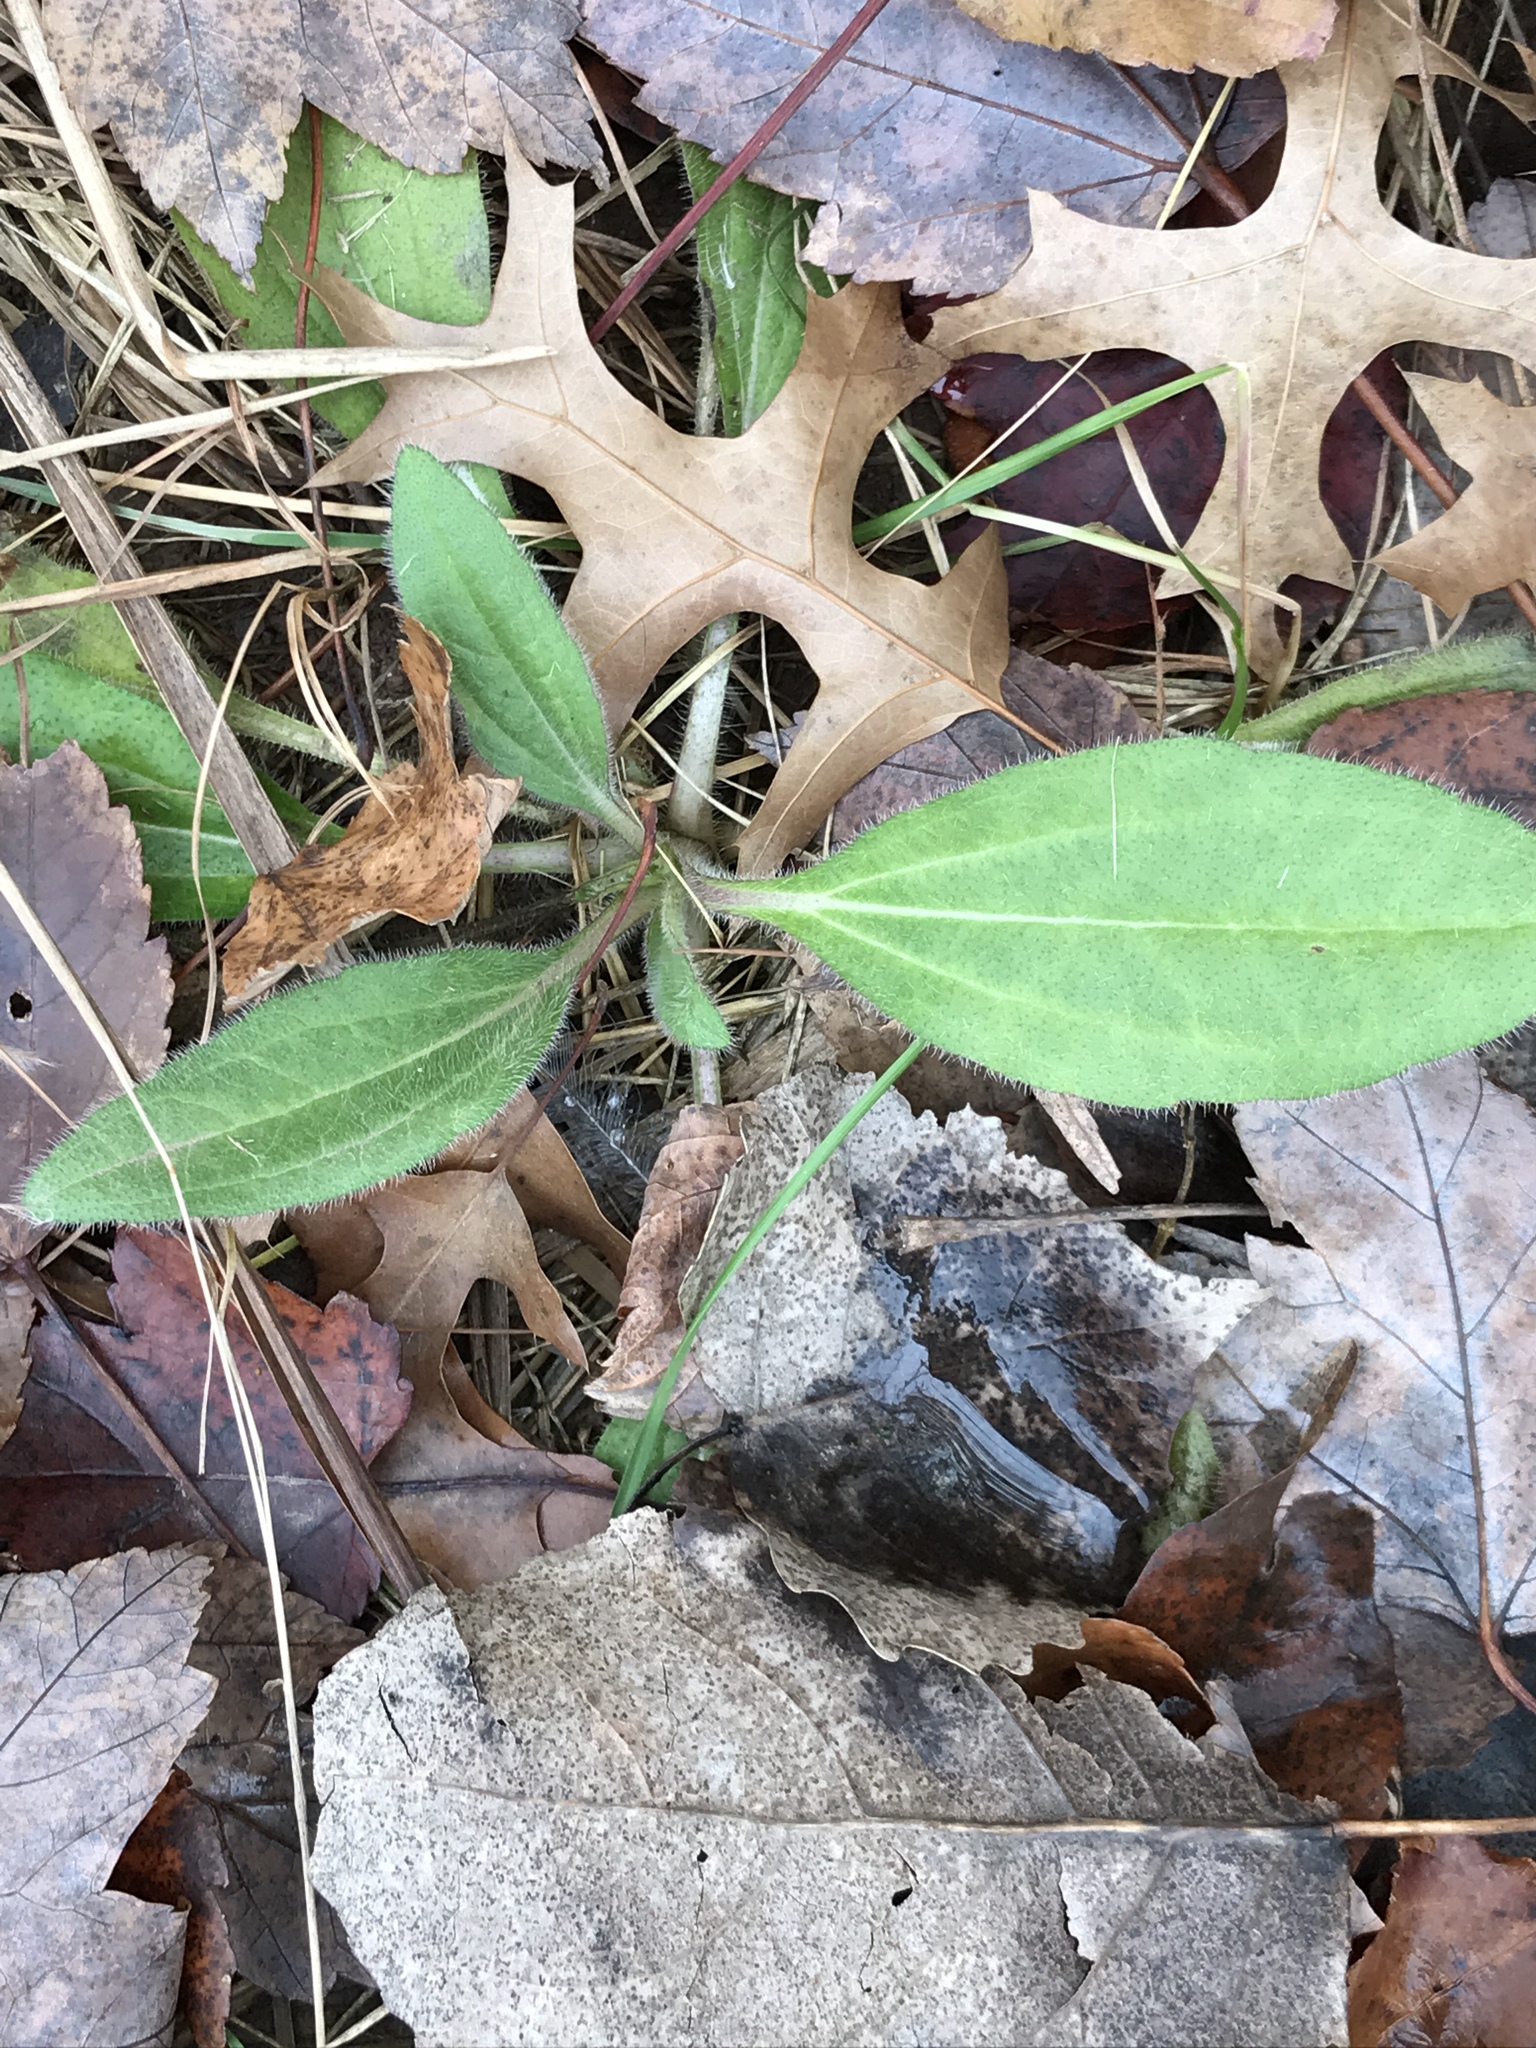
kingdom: Plantae
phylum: Tracheophyta
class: Magnoliopsida
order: Asterales
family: Asteraceae
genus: Rudbeckia
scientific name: Rudbeckia hirta
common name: Black-eyed-susan
